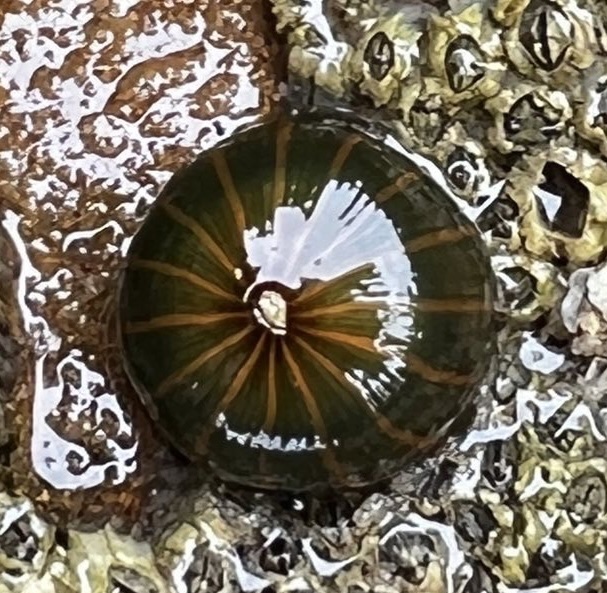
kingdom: Animalia
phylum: Cnidaria
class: Anthozoa
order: Actiniaria
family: Diadumenidae
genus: Diadumene
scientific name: Diadumene lineata
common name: Orange-striped anemone
